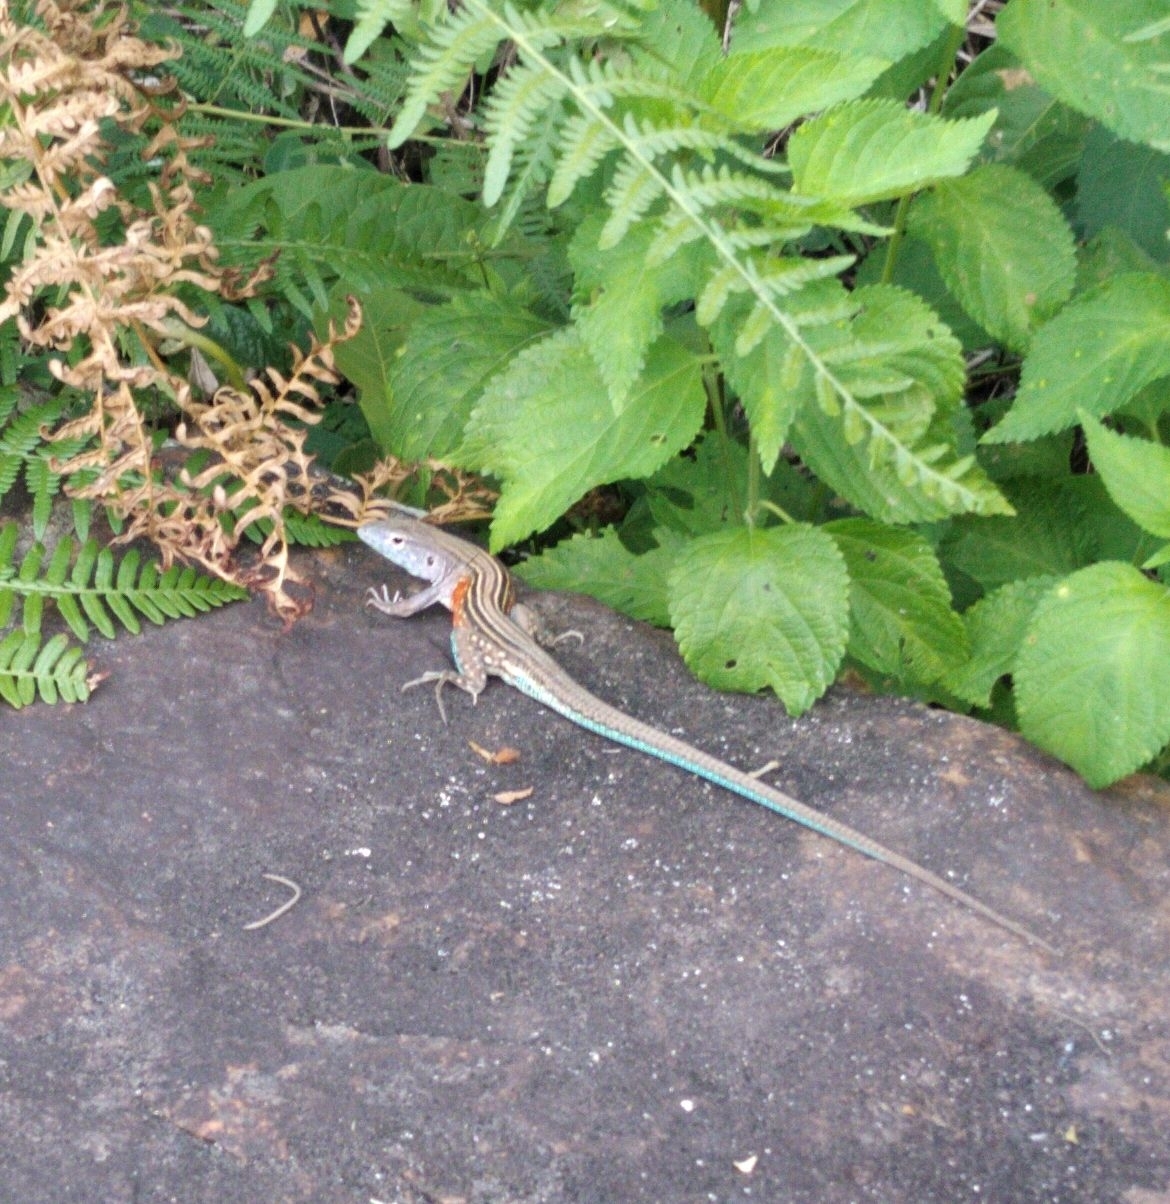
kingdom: Animalia
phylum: Chordata
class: Squamata
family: Teiidae
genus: Cnemidophorus
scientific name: Cnemidophorus
